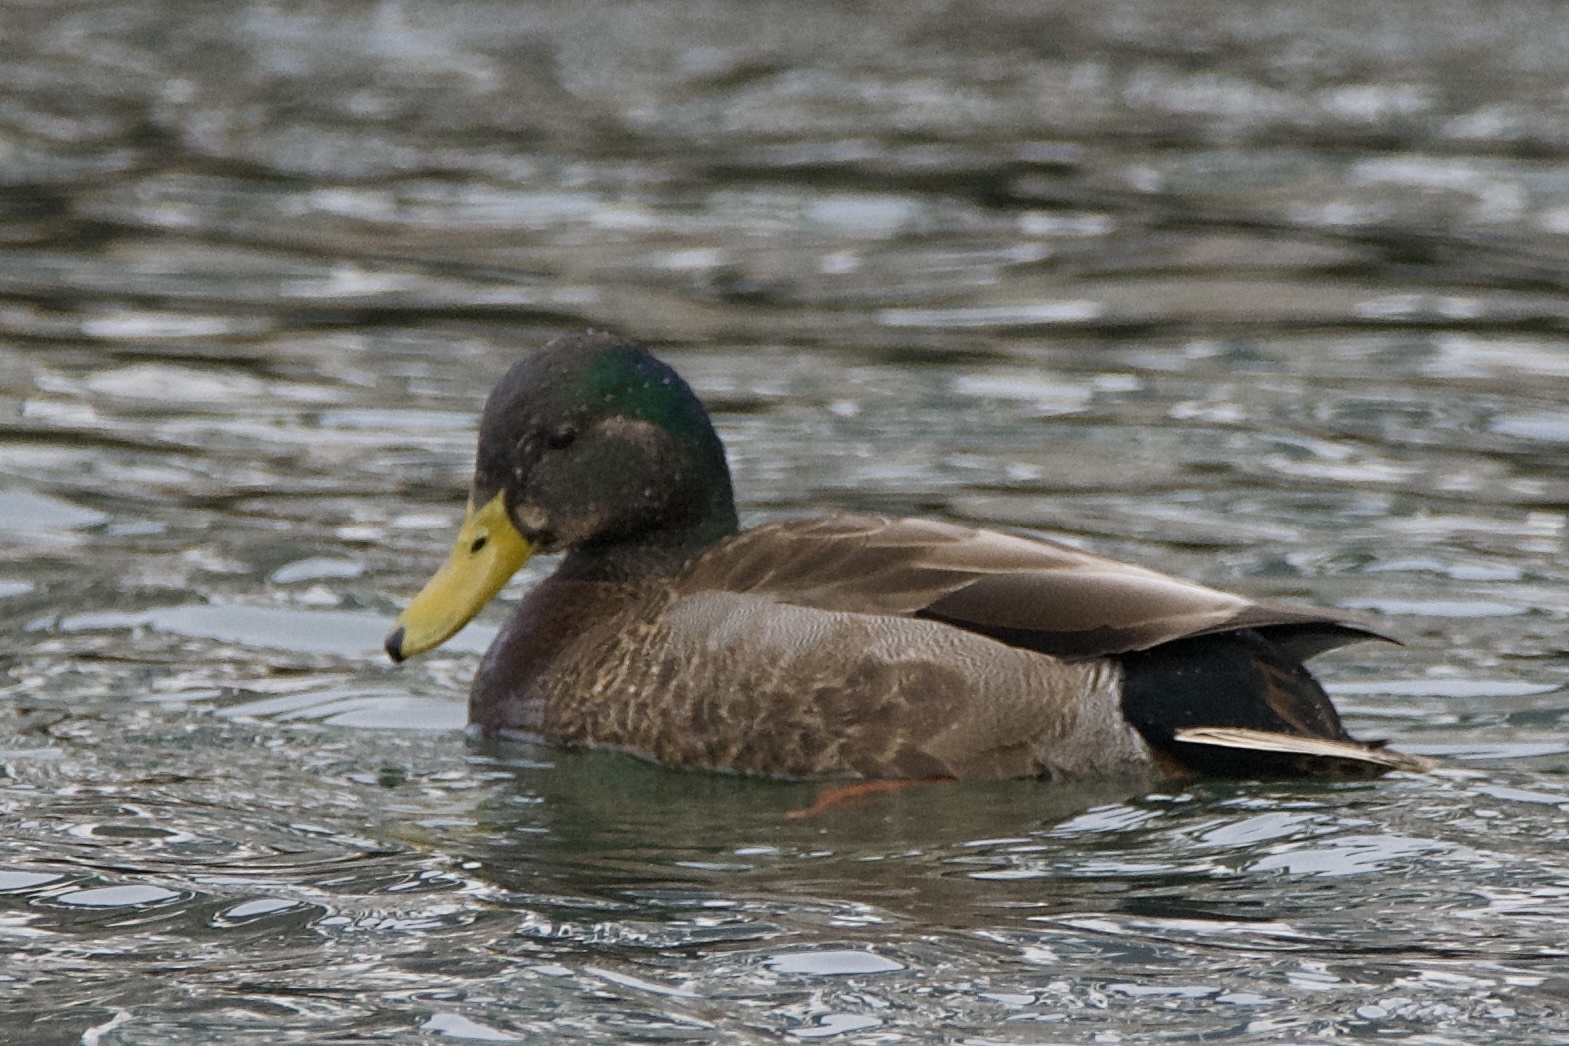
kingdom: Animalia
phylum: Chordata
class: Aves
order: Anseriformes
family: Anatidae
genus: Anas
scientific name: Anas
